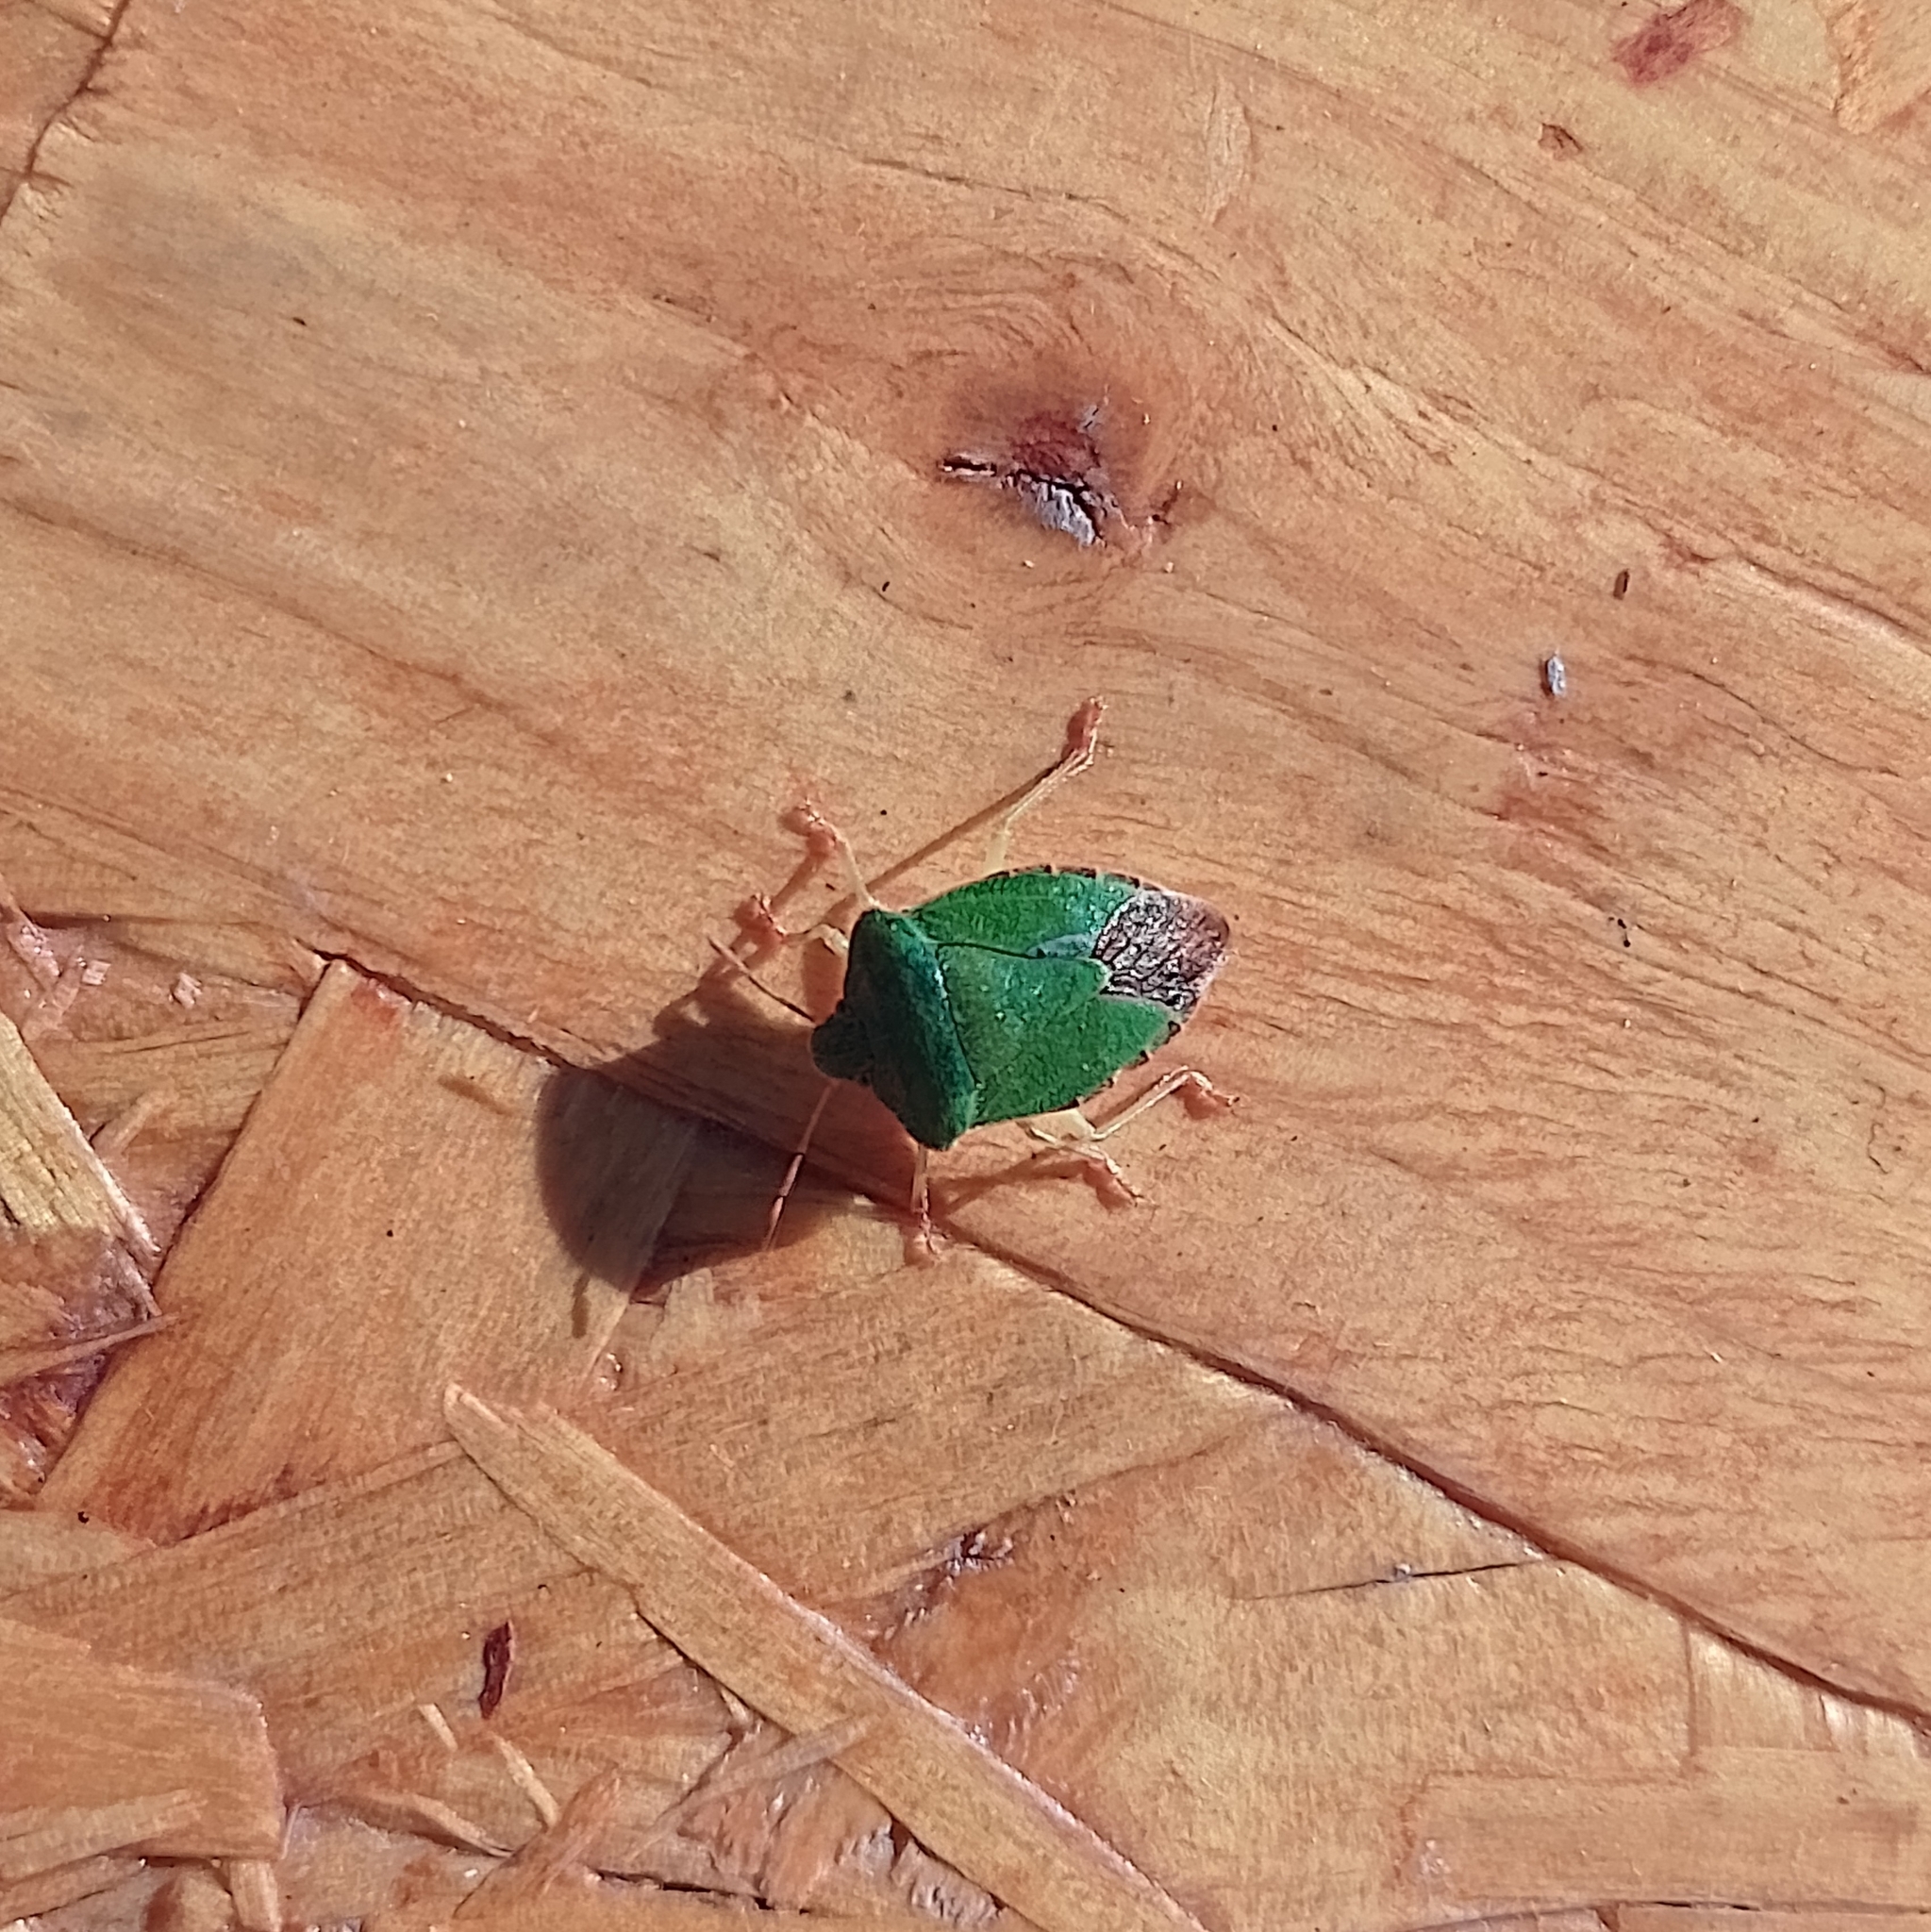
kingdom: Animalia
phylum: Arthropoda
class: Insecta
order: Hemiptera
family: Pentatomidae
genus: Palomena
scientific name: Palomena prasina
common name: Green shieldbug
